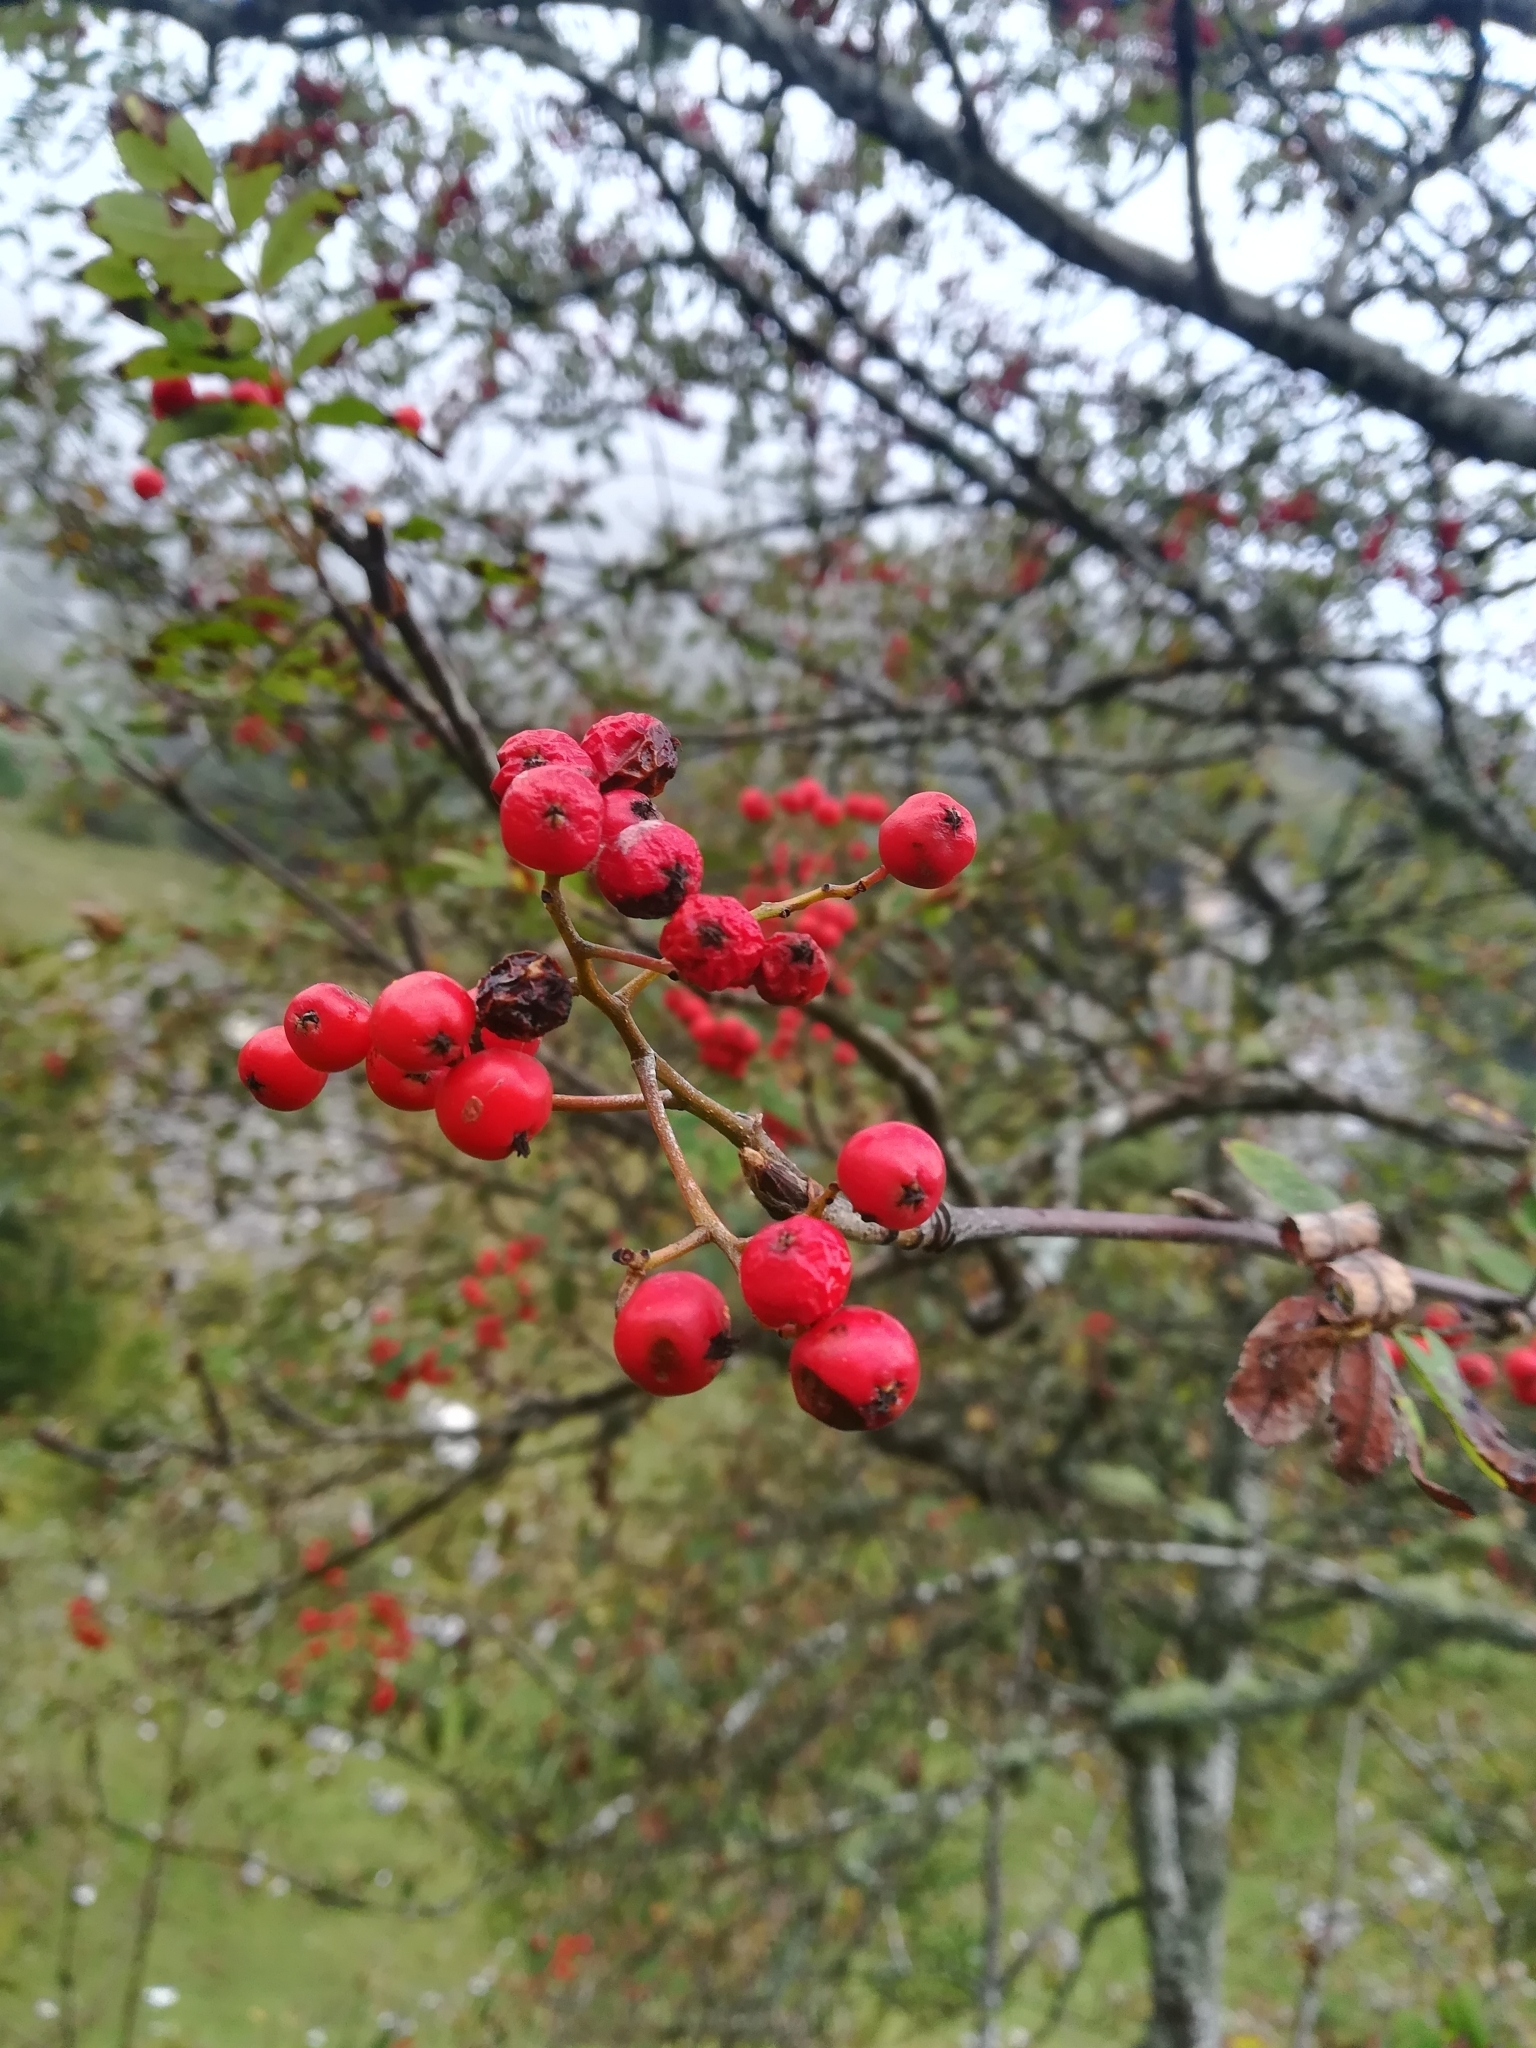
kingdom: Plantae
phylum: Tracheophyta
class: Magnoliopsida
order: Rosales
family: Rosaceae
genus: Sorbus
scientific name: Sorbus aucuparia
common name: Rowan
